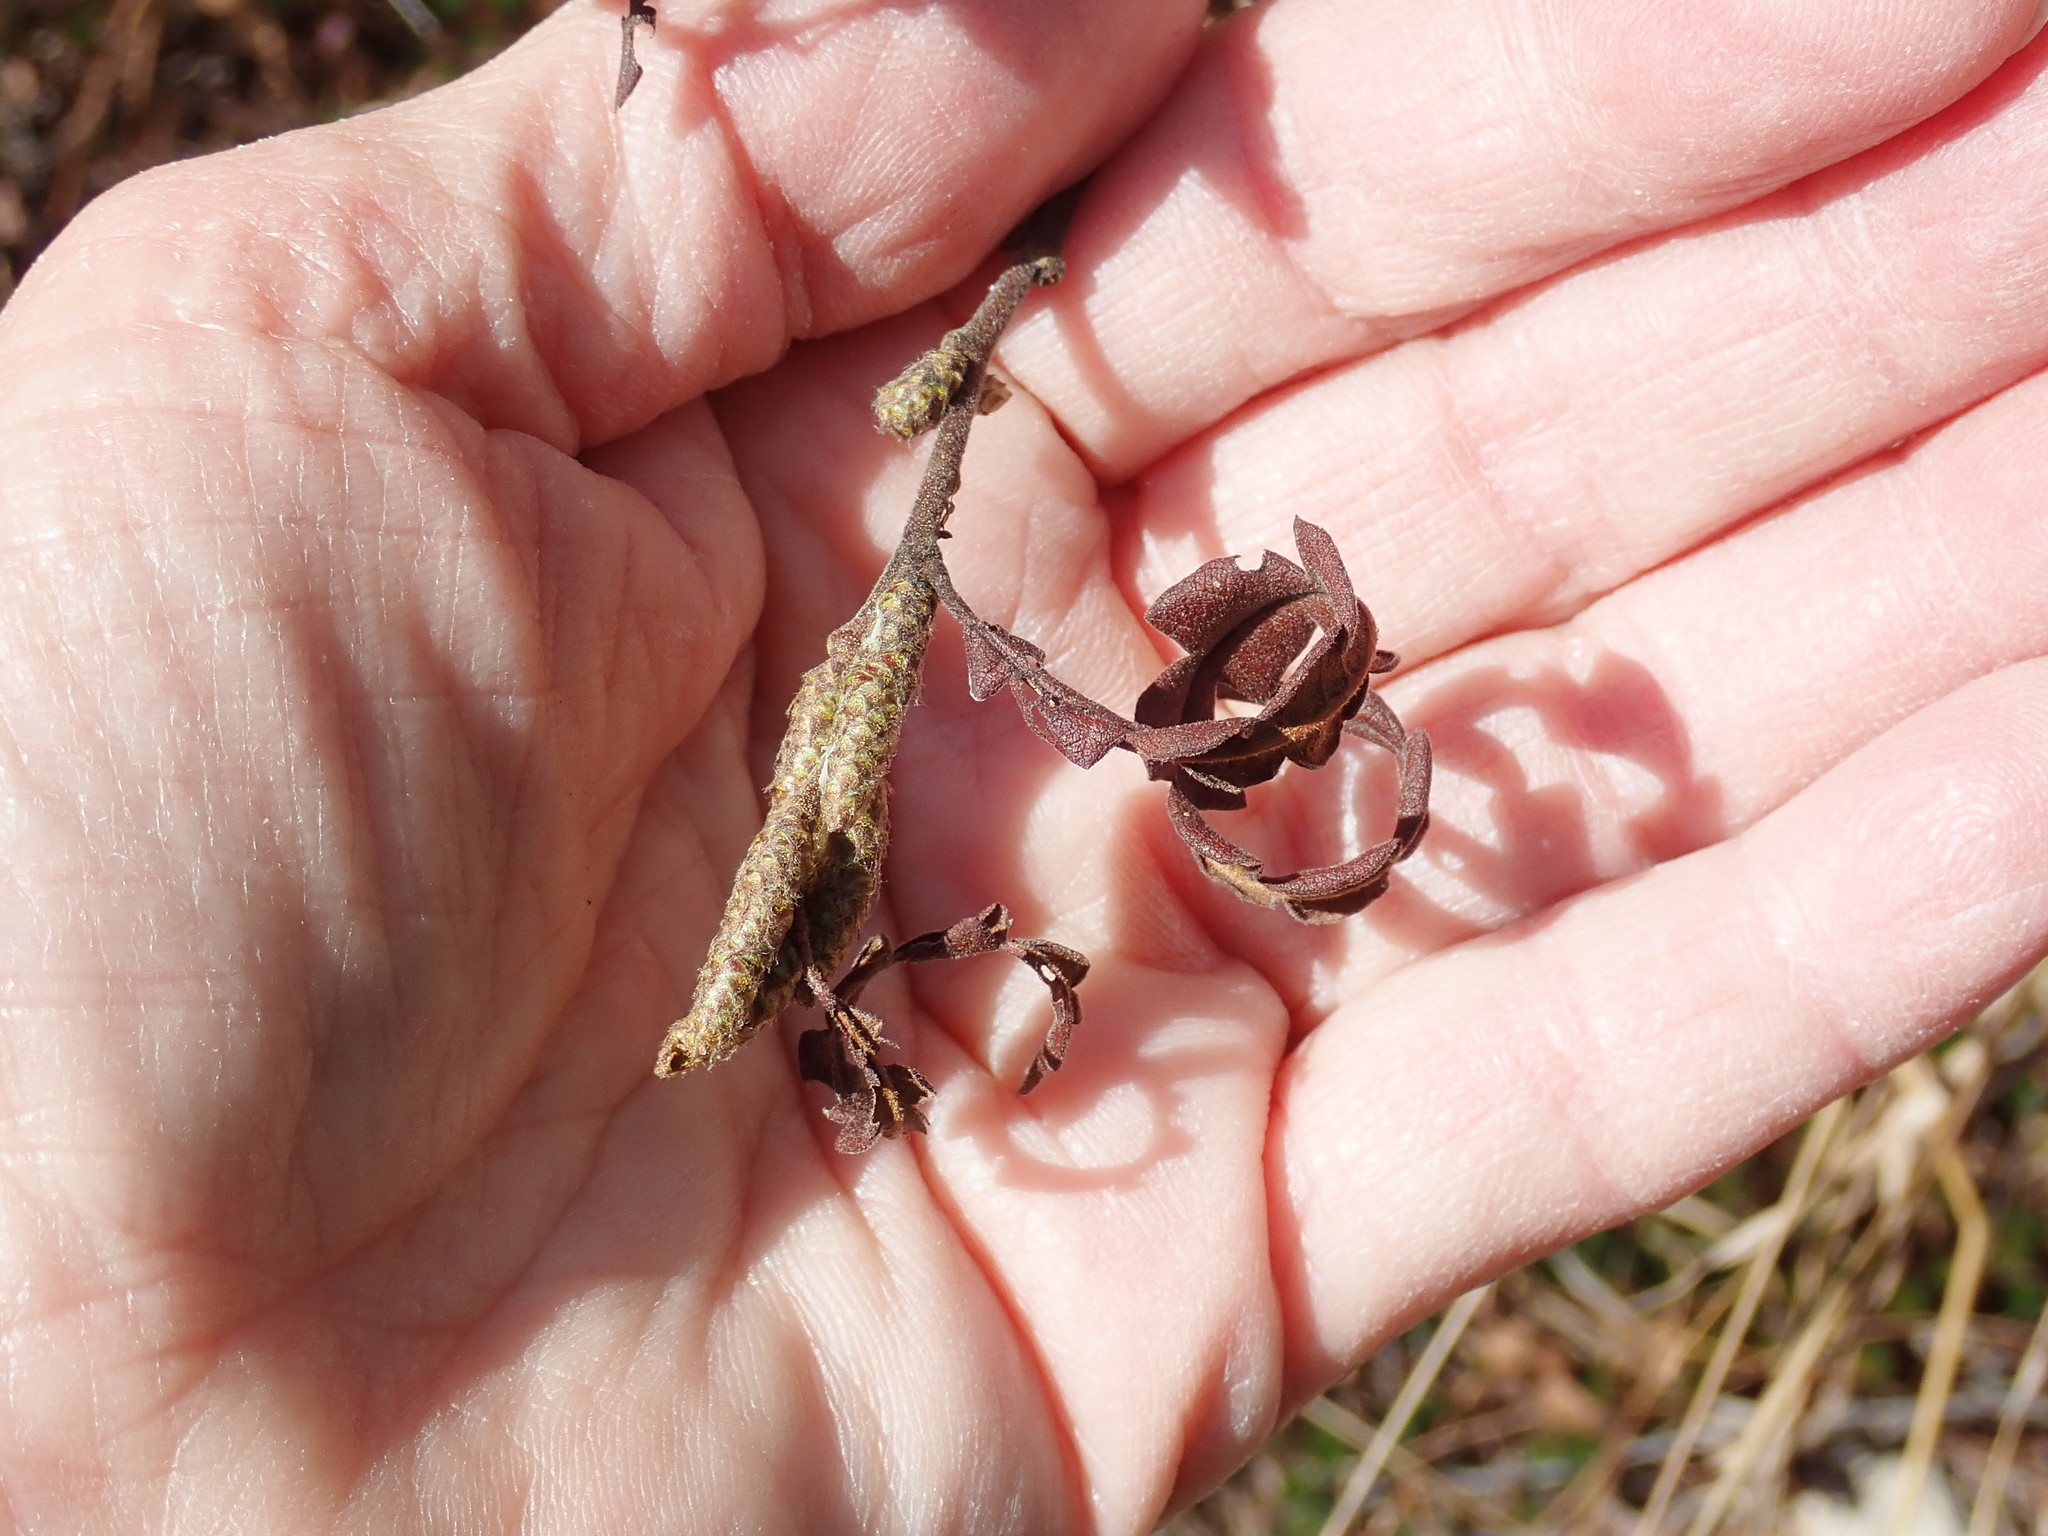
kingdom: Plantae
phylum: Tracheophyta
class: Magnoliopsida
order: Fagales
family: Myricaceae
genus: Comptonia
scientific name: Comptonia peregrina
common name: Sweet-fern
